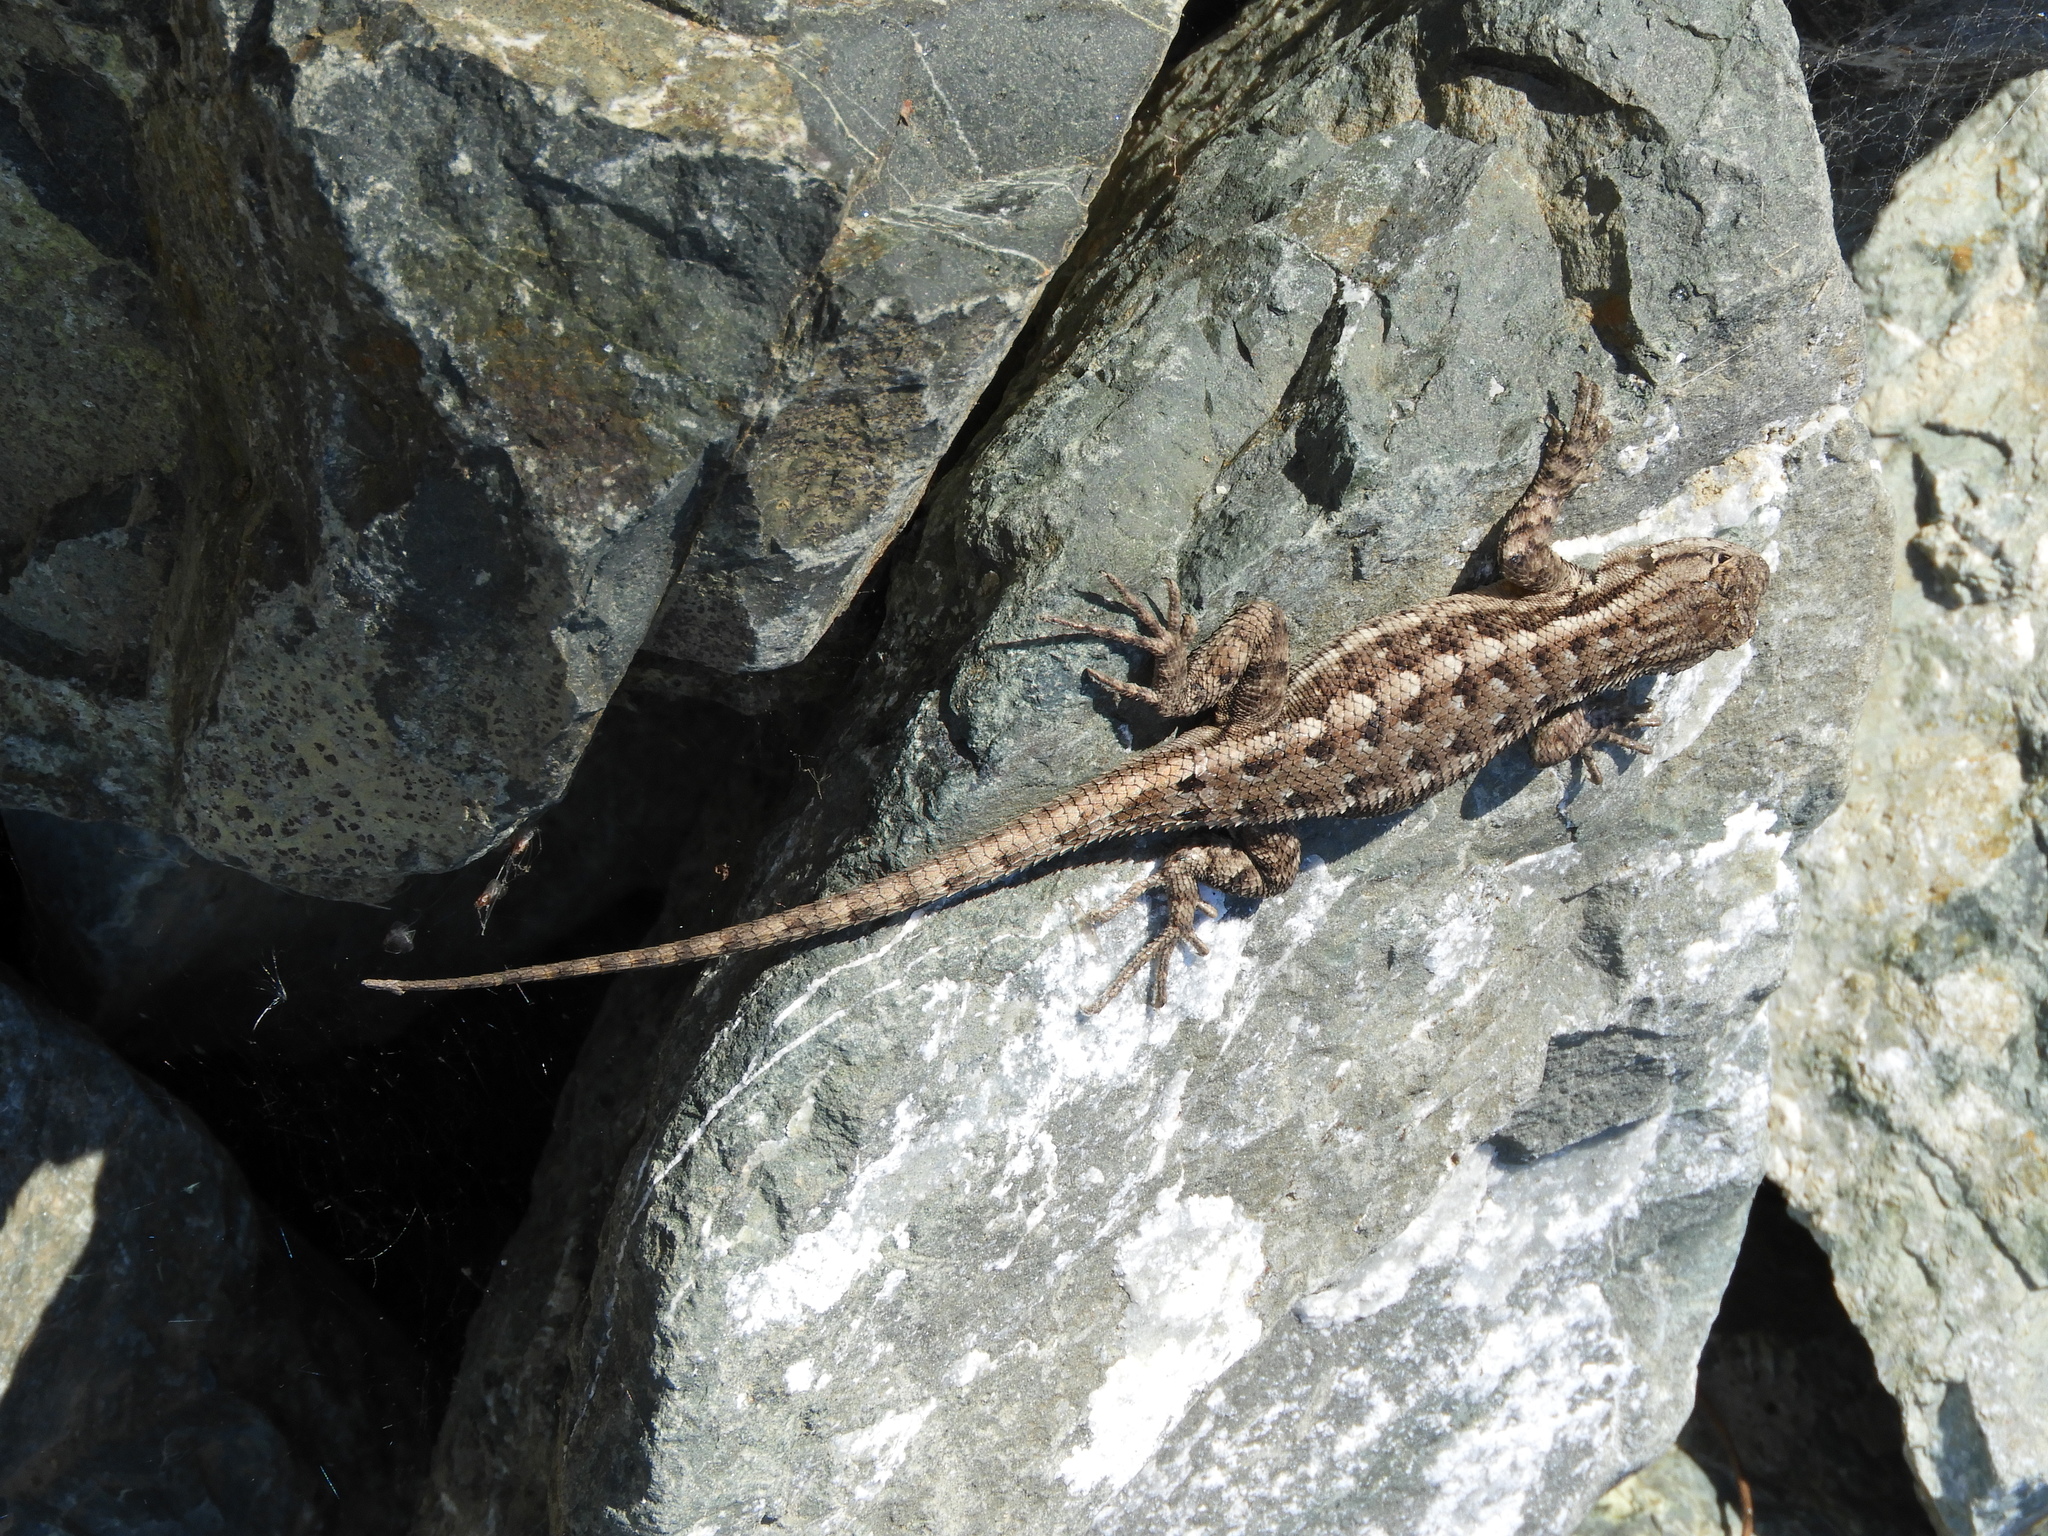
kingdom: Animalia
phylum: Chordata
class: Squamata
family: Phrynosomatidae
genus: Sceloporus
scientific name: Sceloporus occidentalis
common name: Western fence lizard
